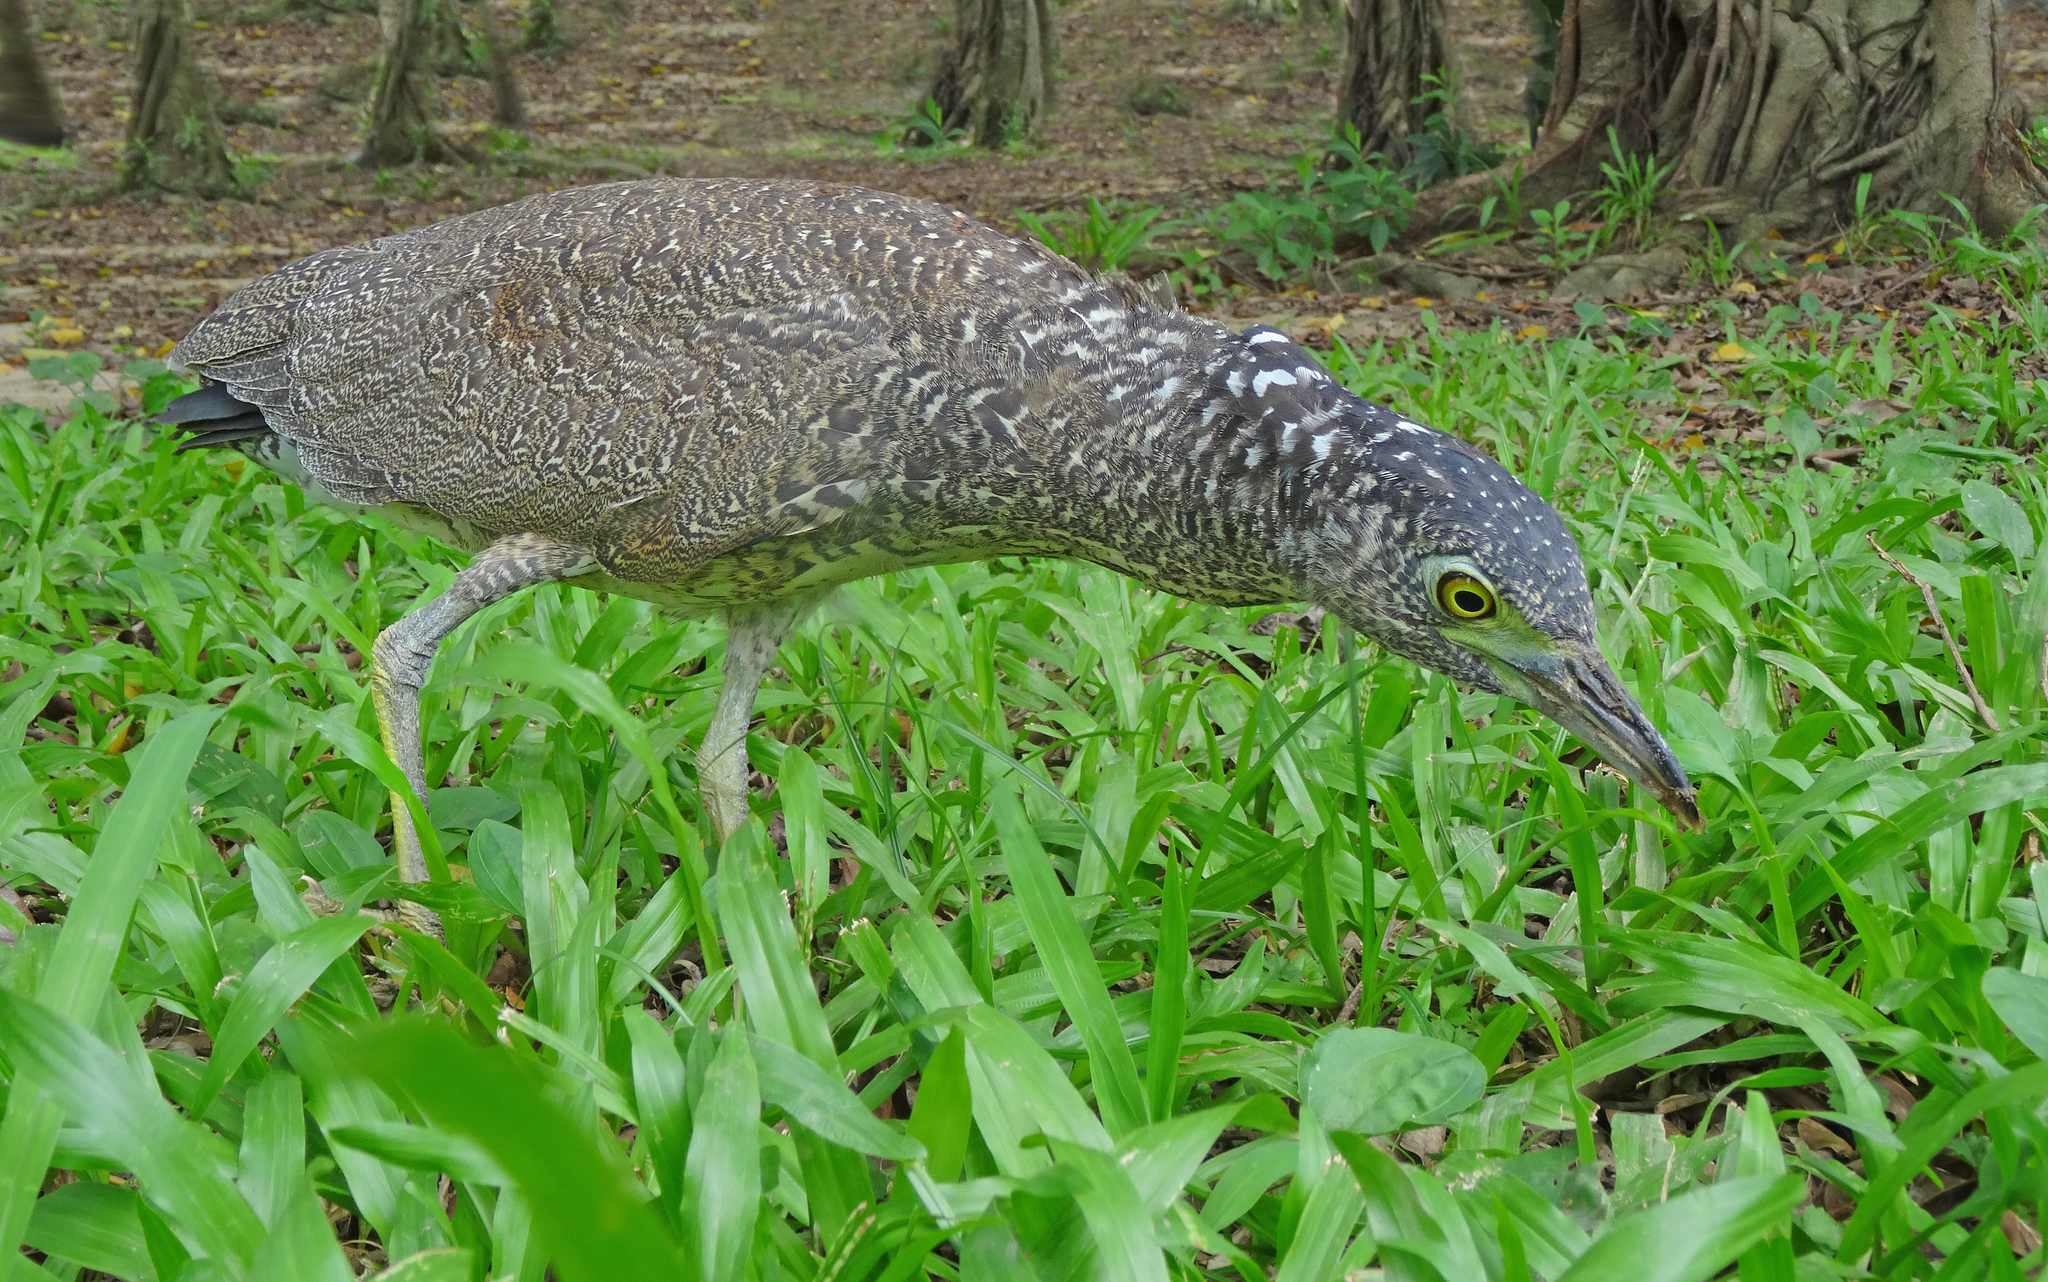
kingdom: Animalia
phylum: Chordata
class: Aves
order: Pelecaniformes
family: Ardeidae
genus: Gorsachius
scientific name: Gorsachius melanolophus
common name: Malayan night heron
